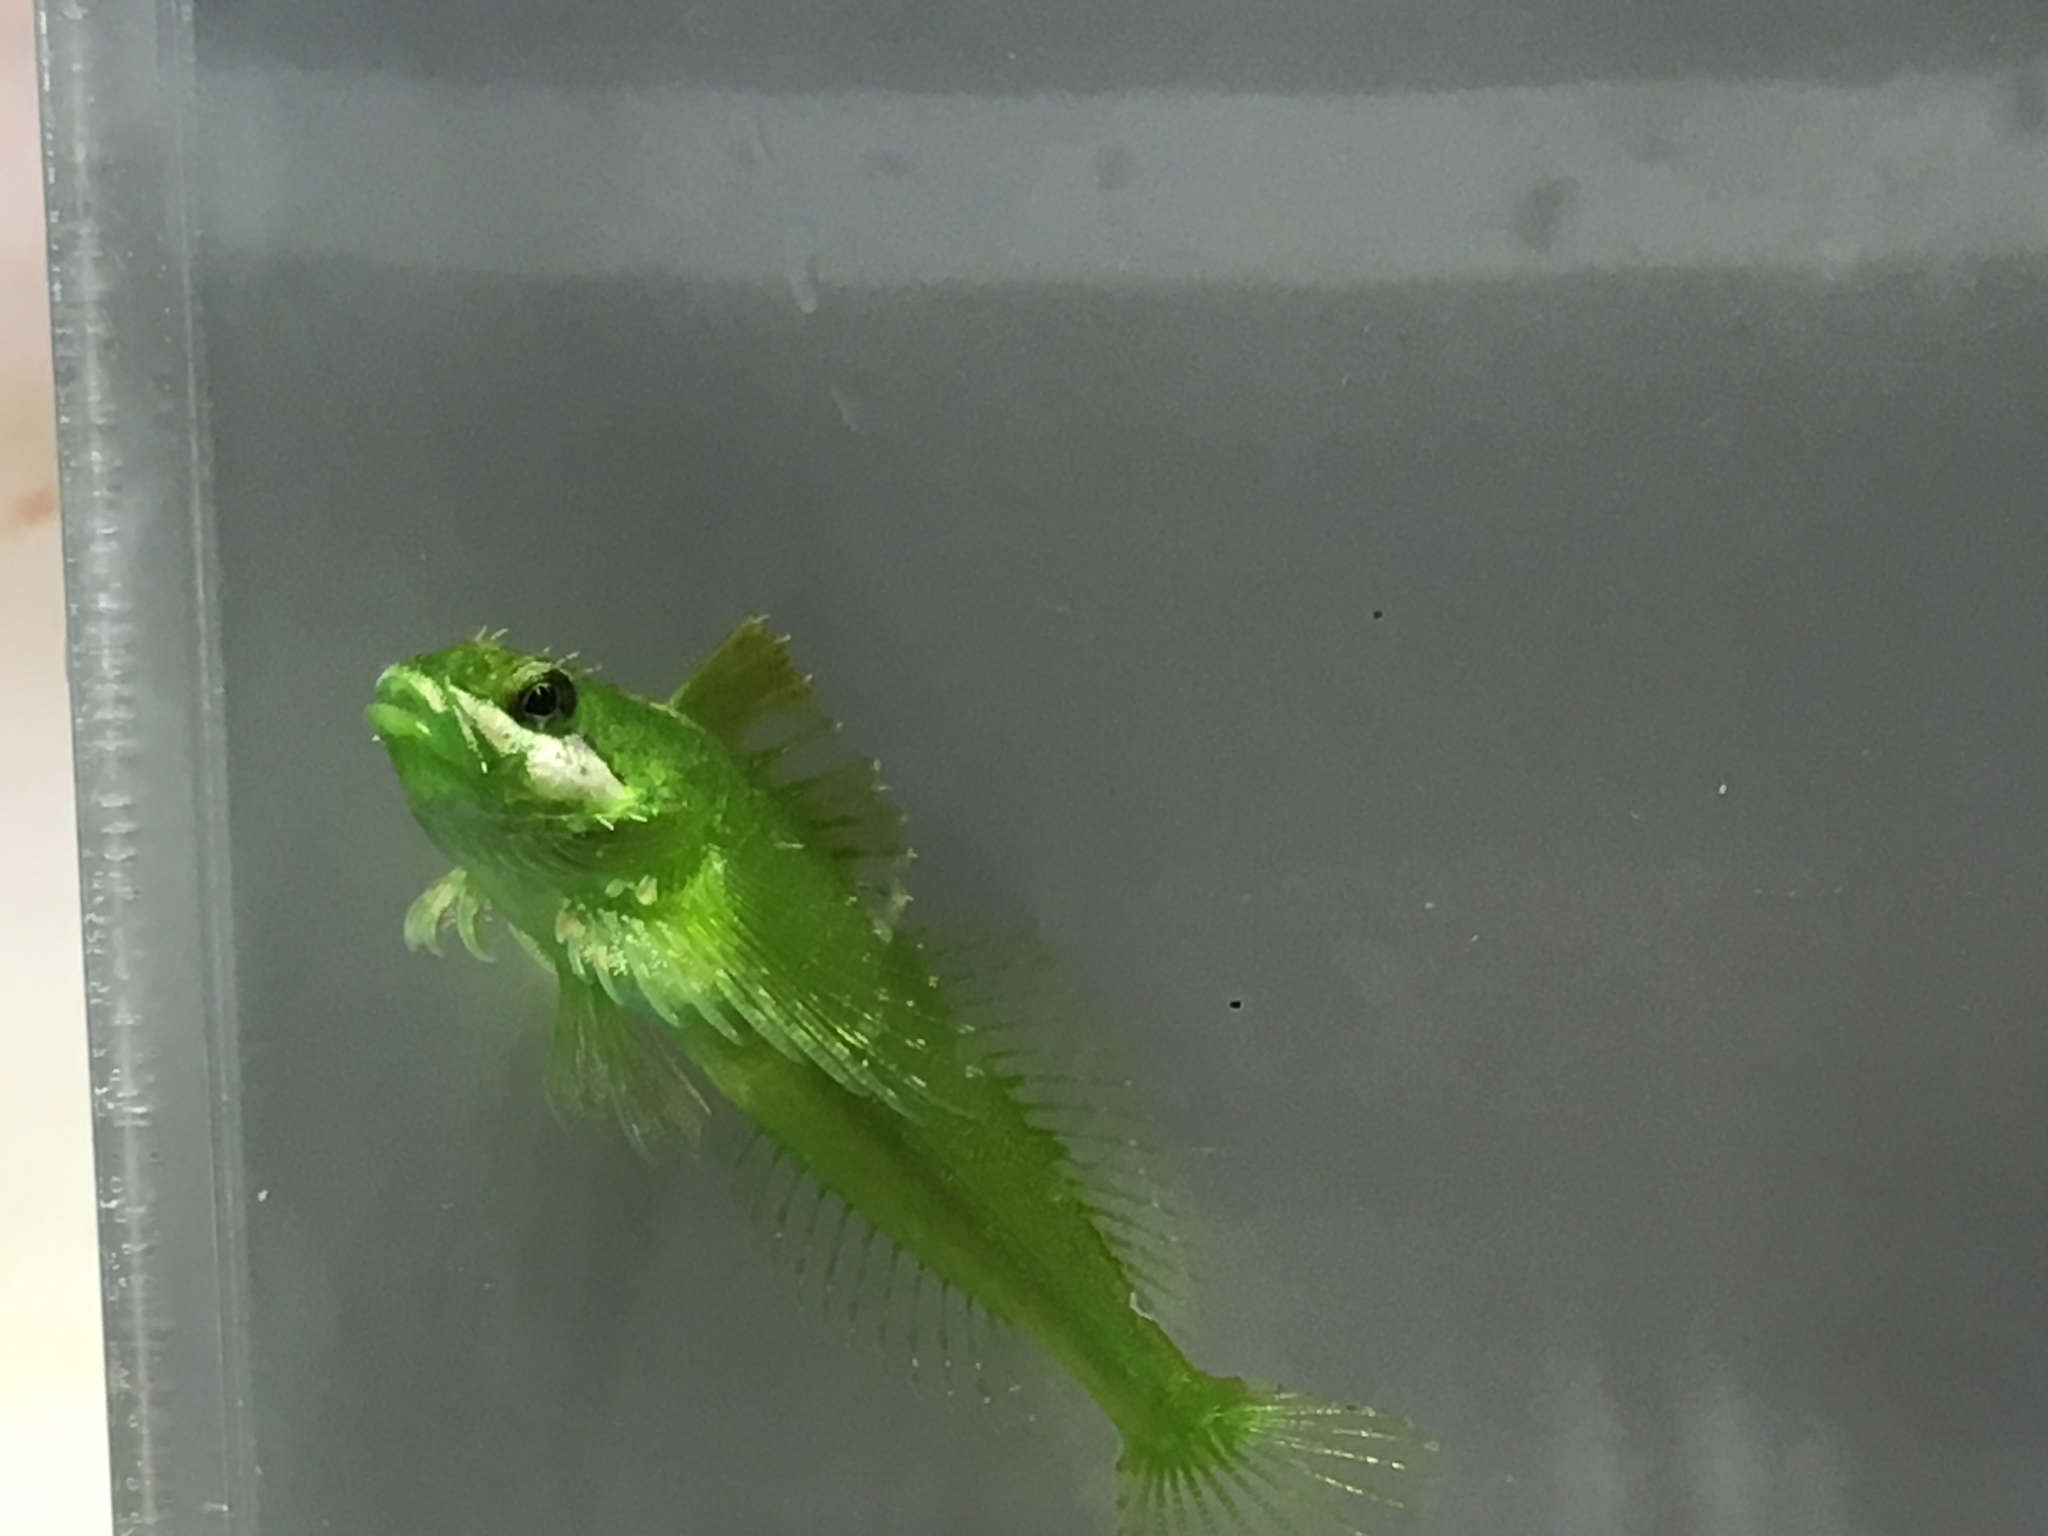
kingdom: Animalia
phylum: Chordata
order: Scorpaeniformes
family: Cottidae
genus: Clinocottus
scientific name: Clinocottus acuticeps
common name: Sharpnose sculpin
